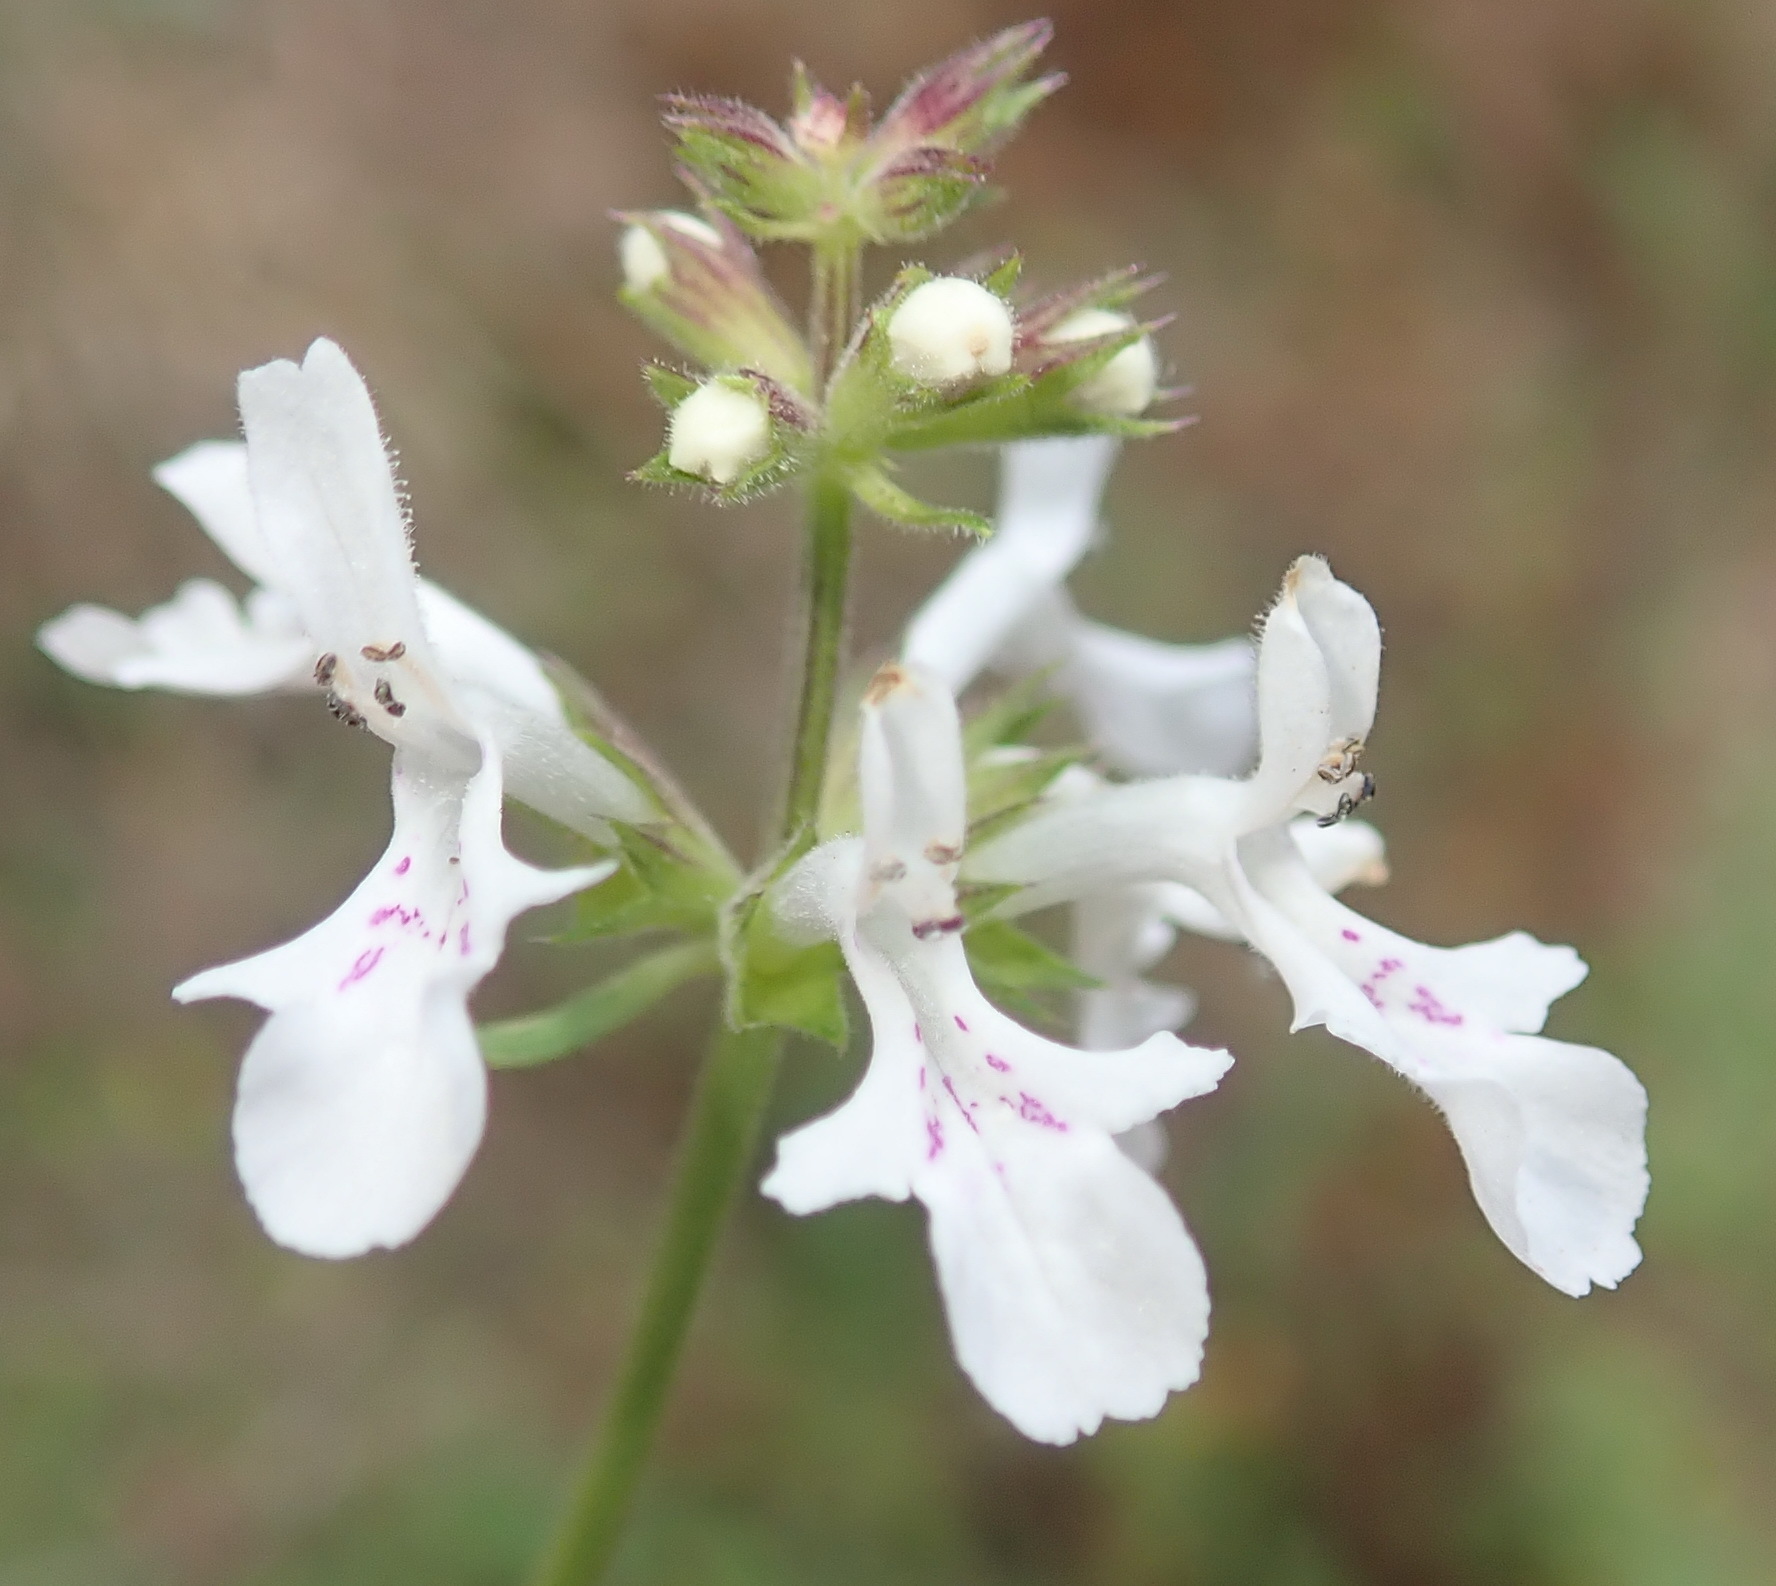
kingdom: Plantae
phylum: Tracheophyta
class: Magnoliopsida
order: Lamiales
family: Lamiaceae
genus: Stachys
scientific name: Stachys aethiopica
